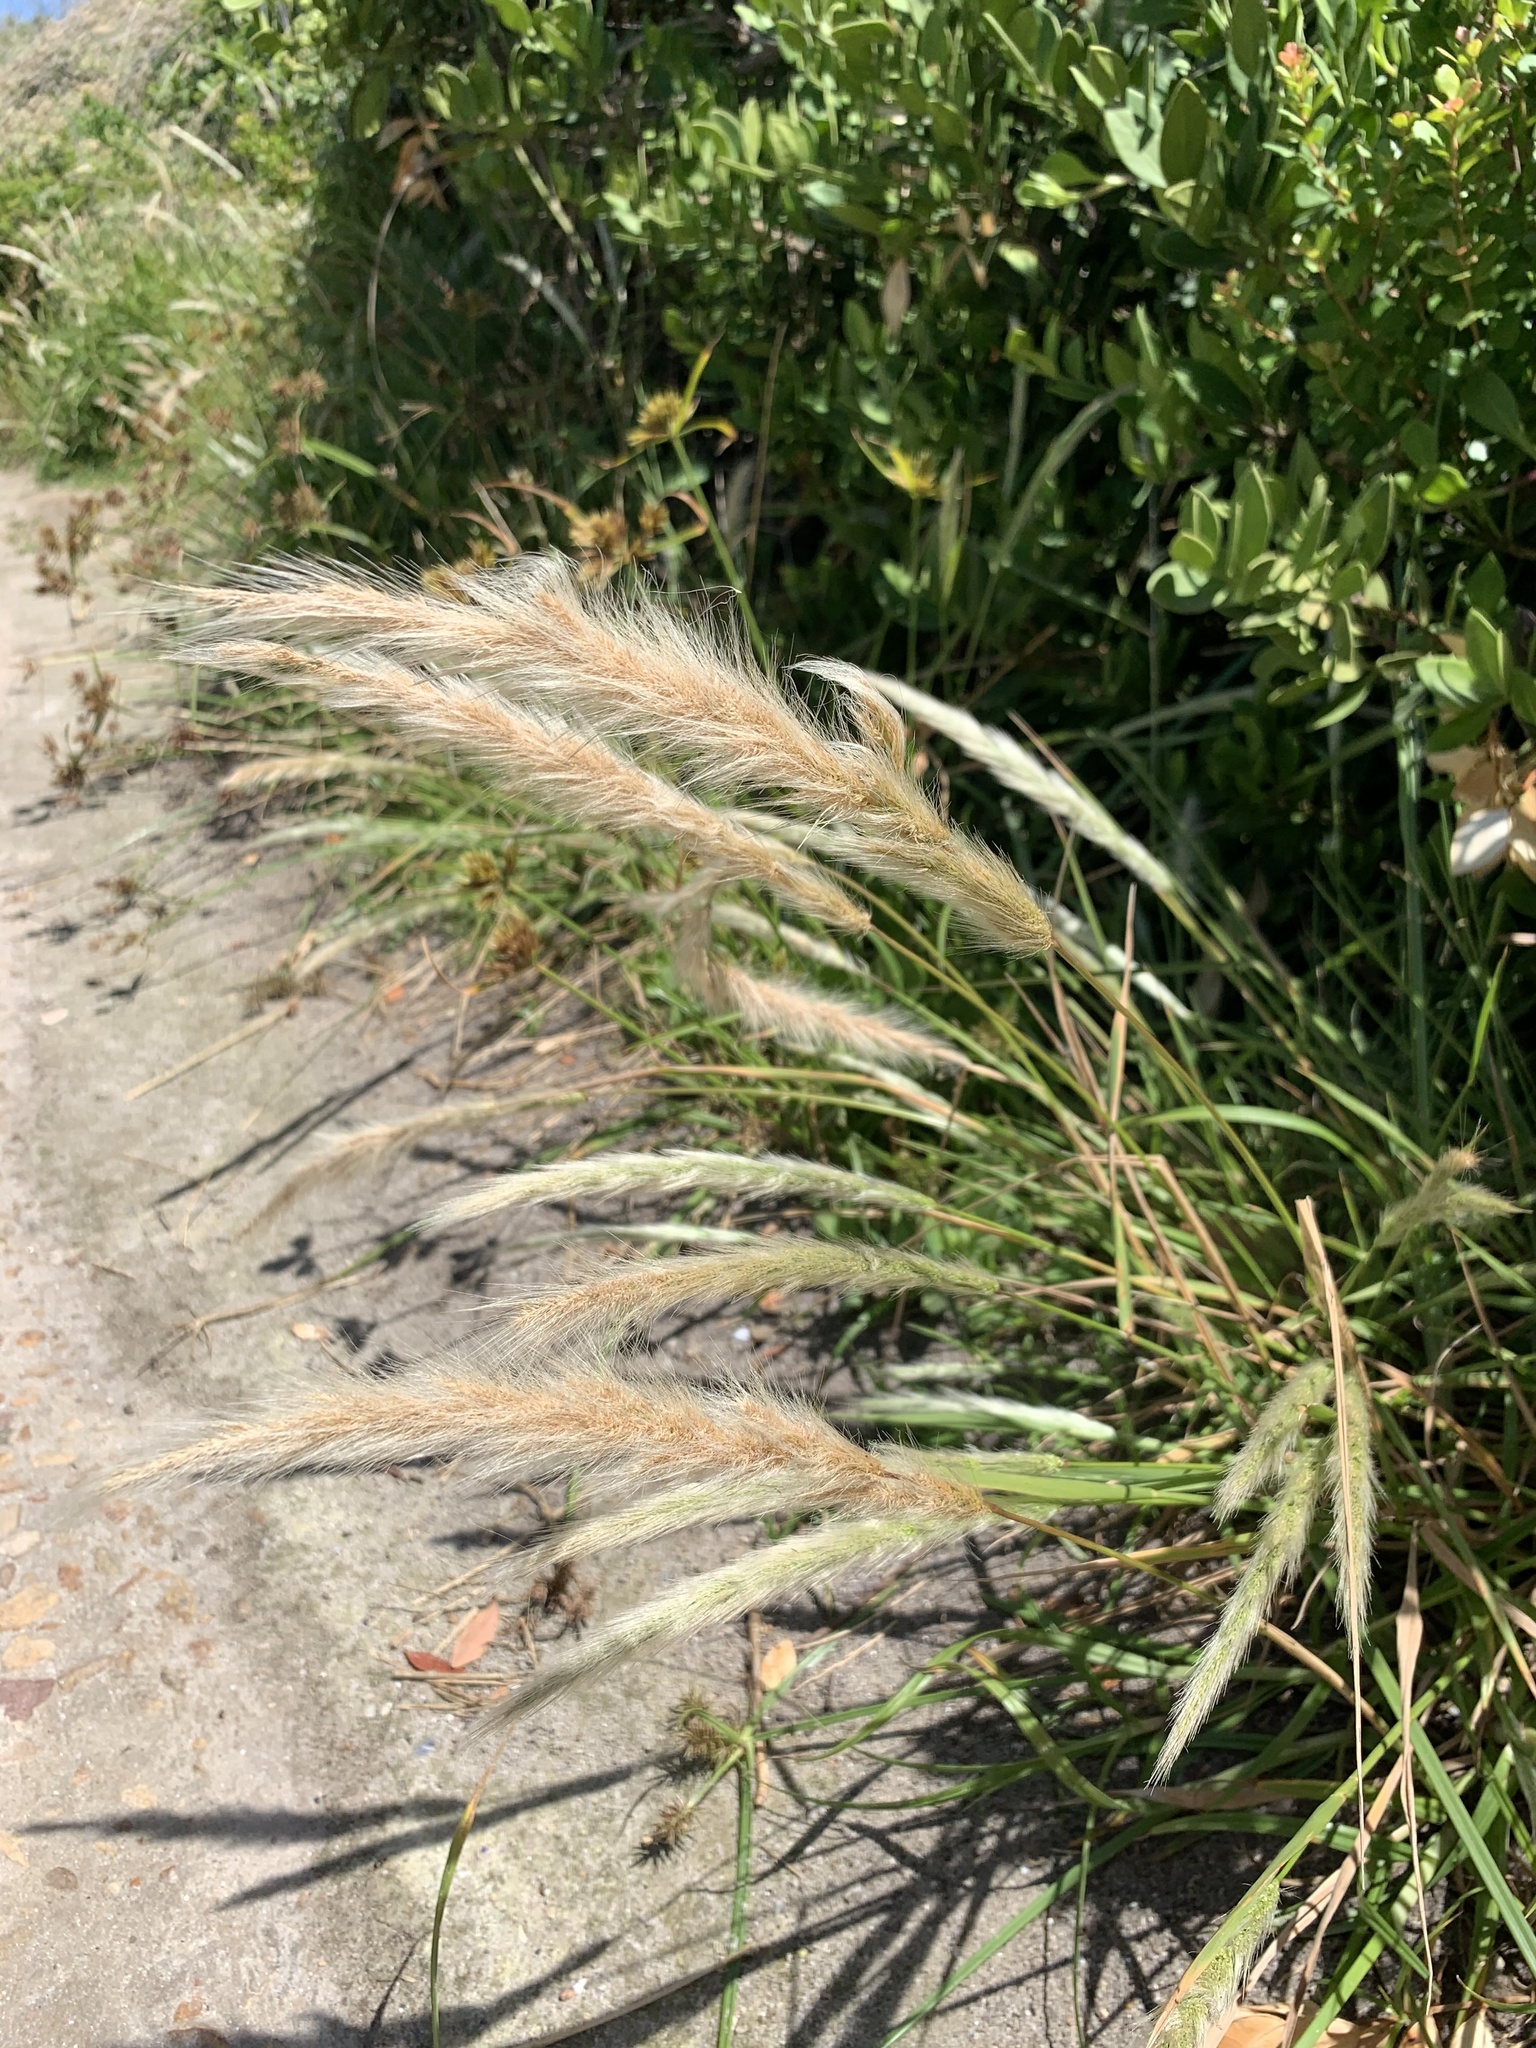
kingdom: Plantae
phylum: Tracheophyta
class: Liliopsida
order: Poales
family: Poaceae
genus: Polypogon
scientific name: Polypogon monspeliensis
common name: Annual rabbitsfoot grass
